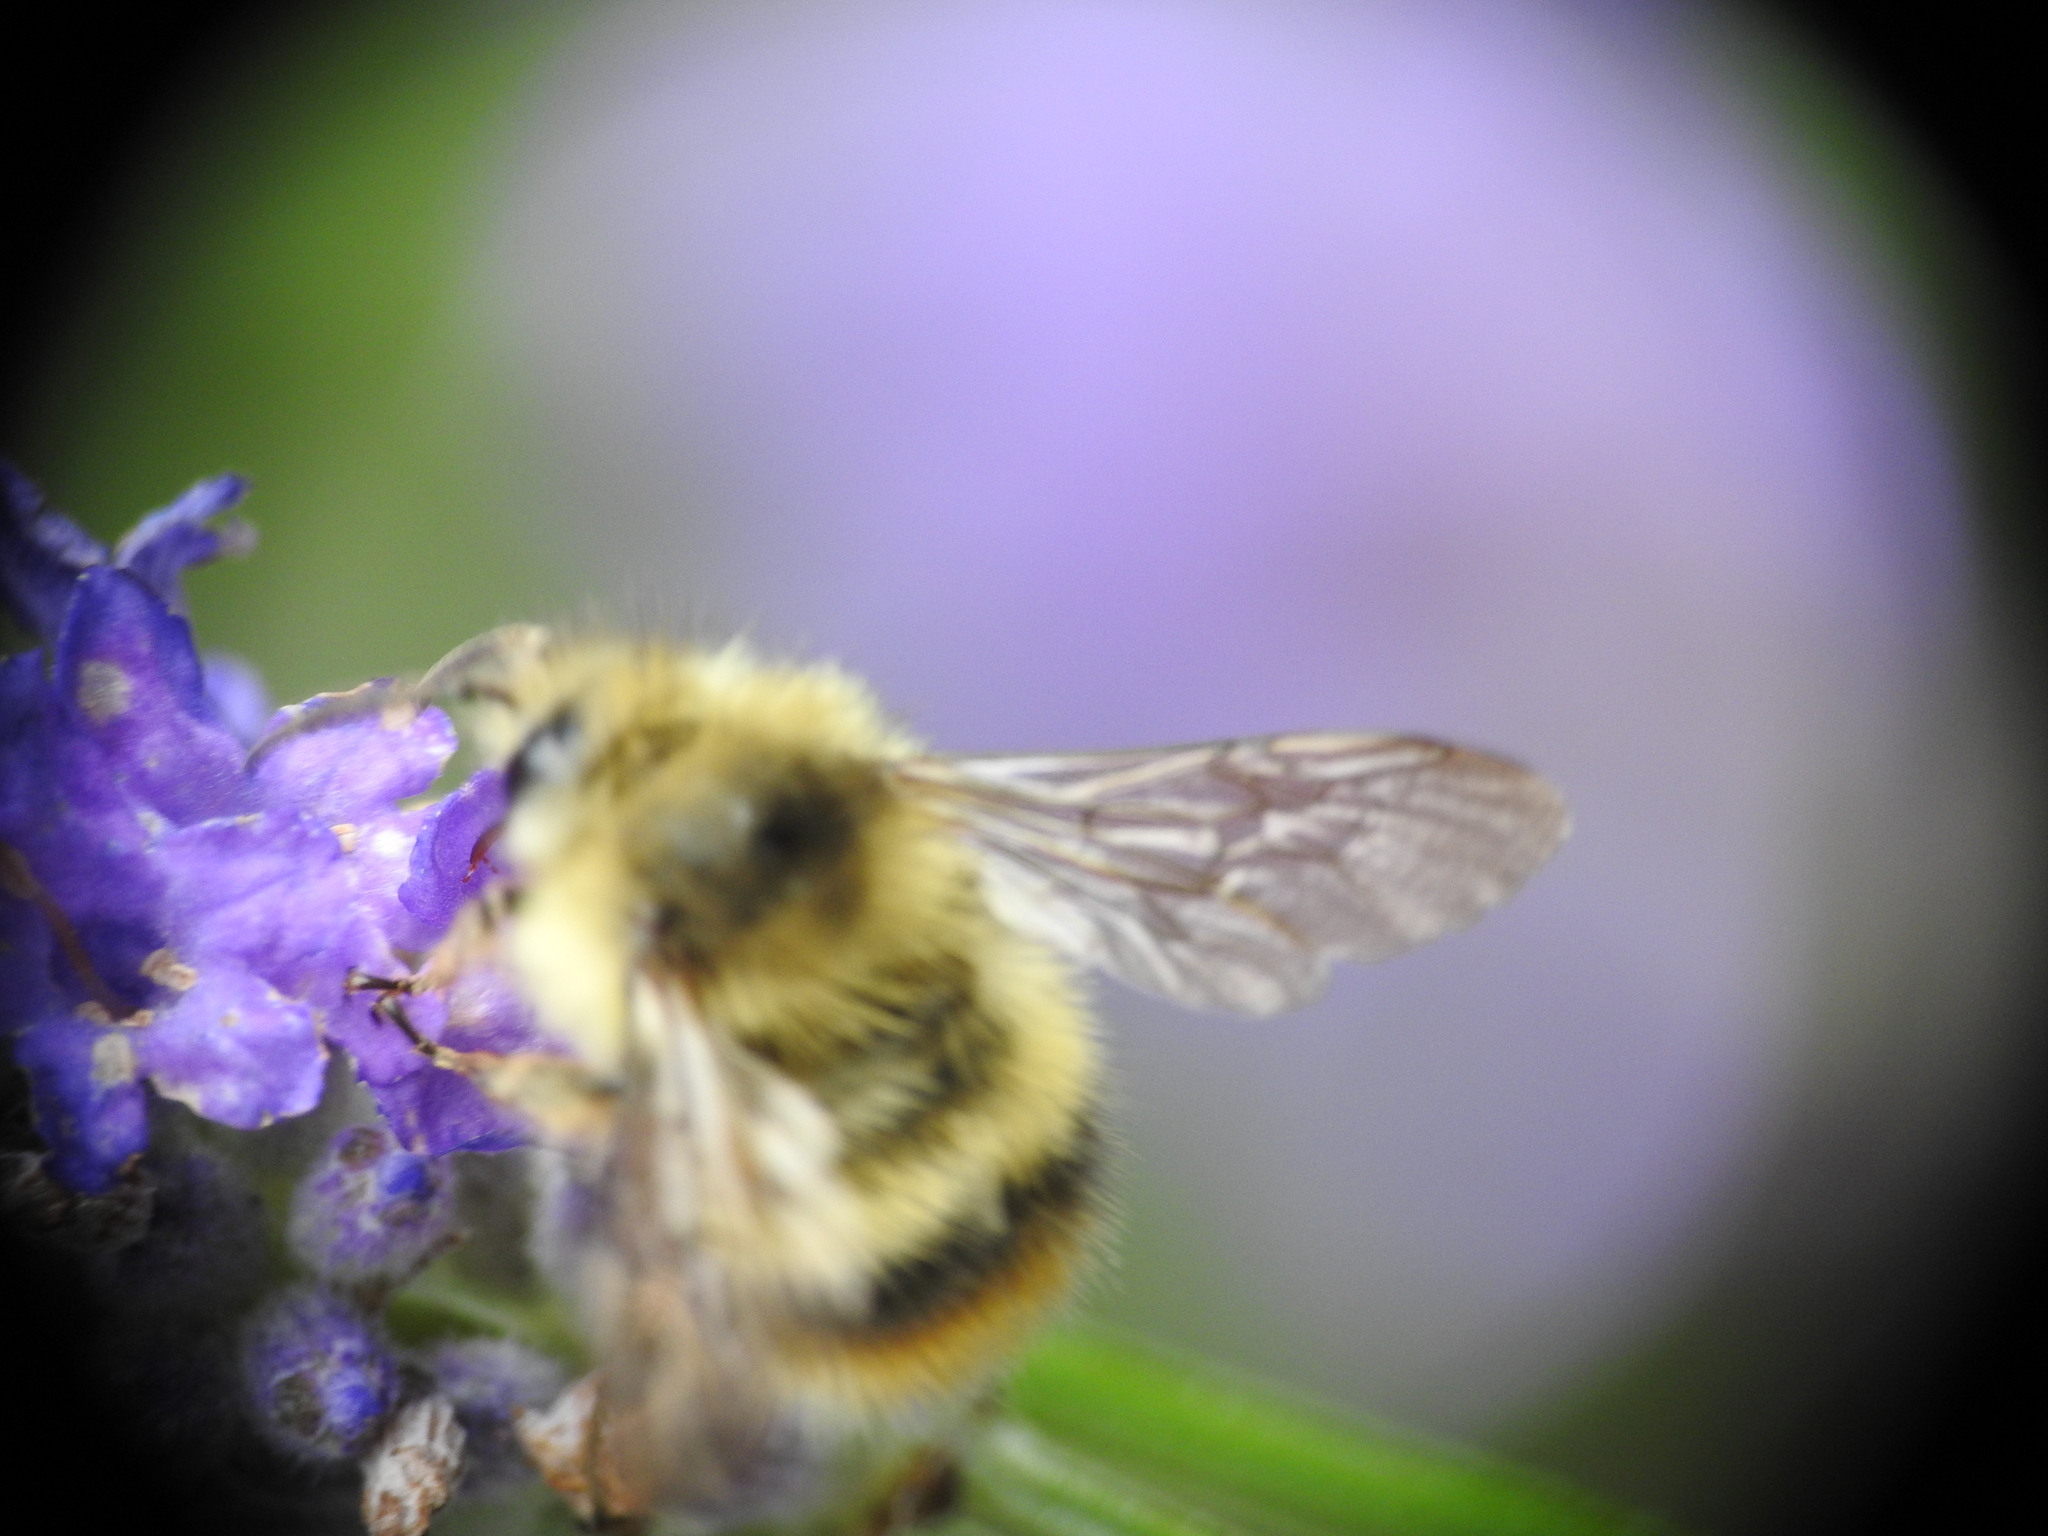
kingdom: Animalia
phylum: Arthropoda
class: Insecta
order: Hymenoptera
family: Apidae
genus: Bombus
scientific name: Bombus mixtus
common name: Fuzzy-horned bumble bee
